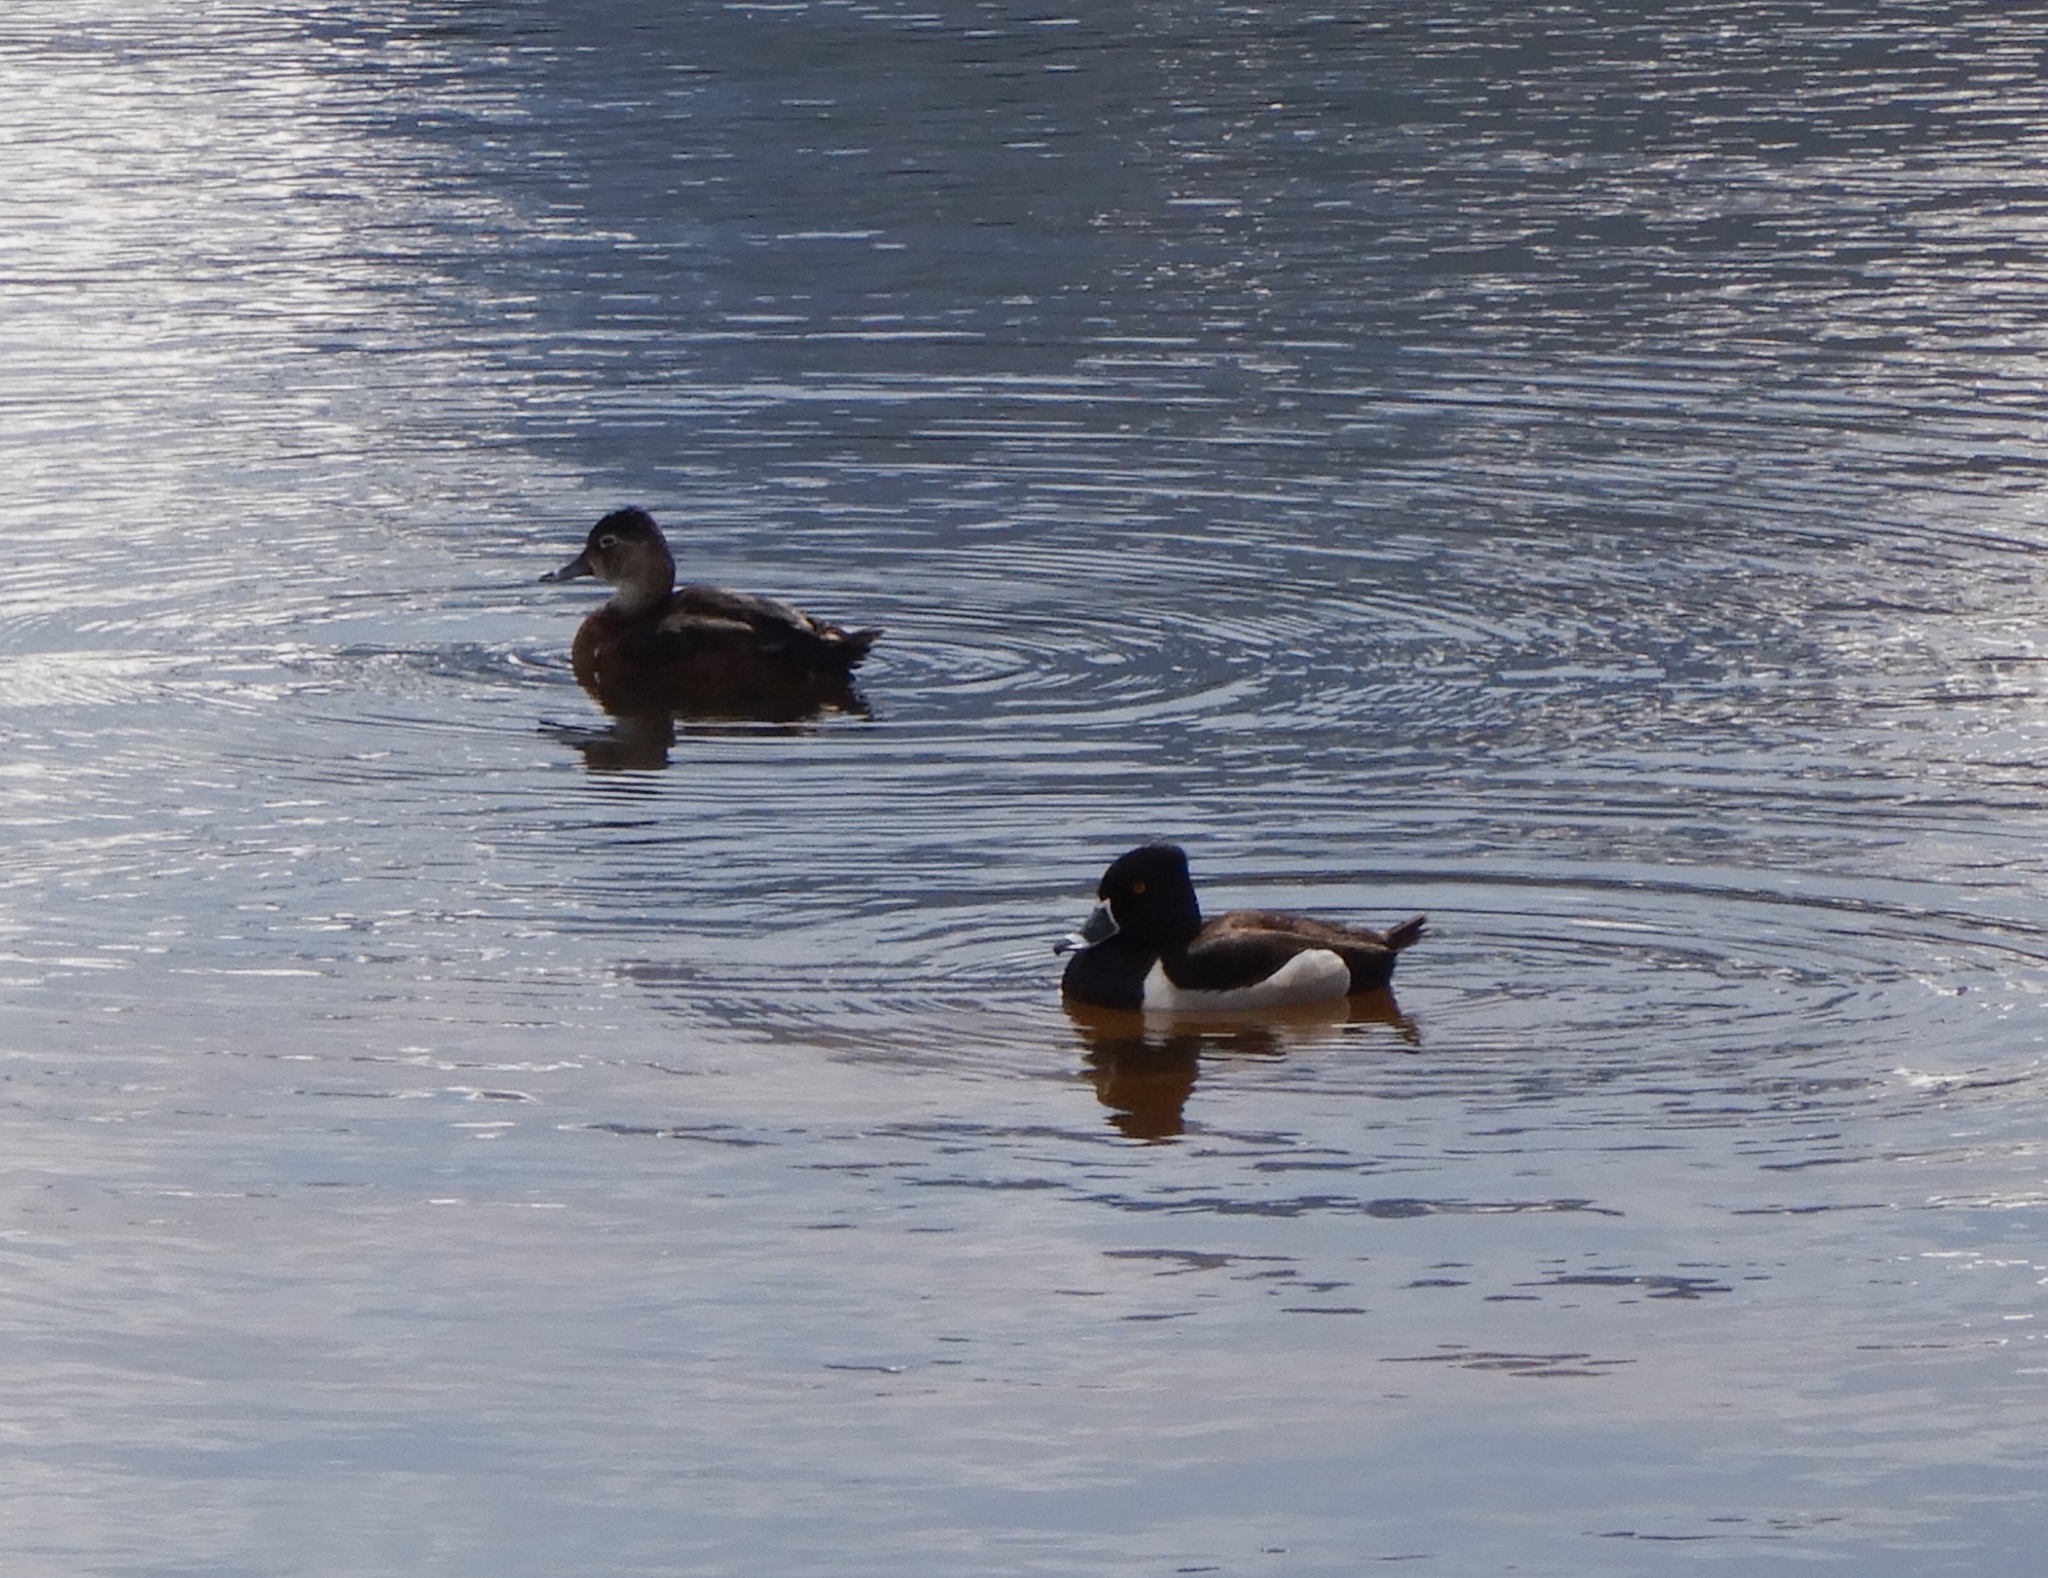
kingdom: Animalia
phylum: Chordata
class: Aves
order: Anseriformes
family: Anatidae
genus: Aythya
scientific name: Aythya collaris
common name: Ring-necked duck
